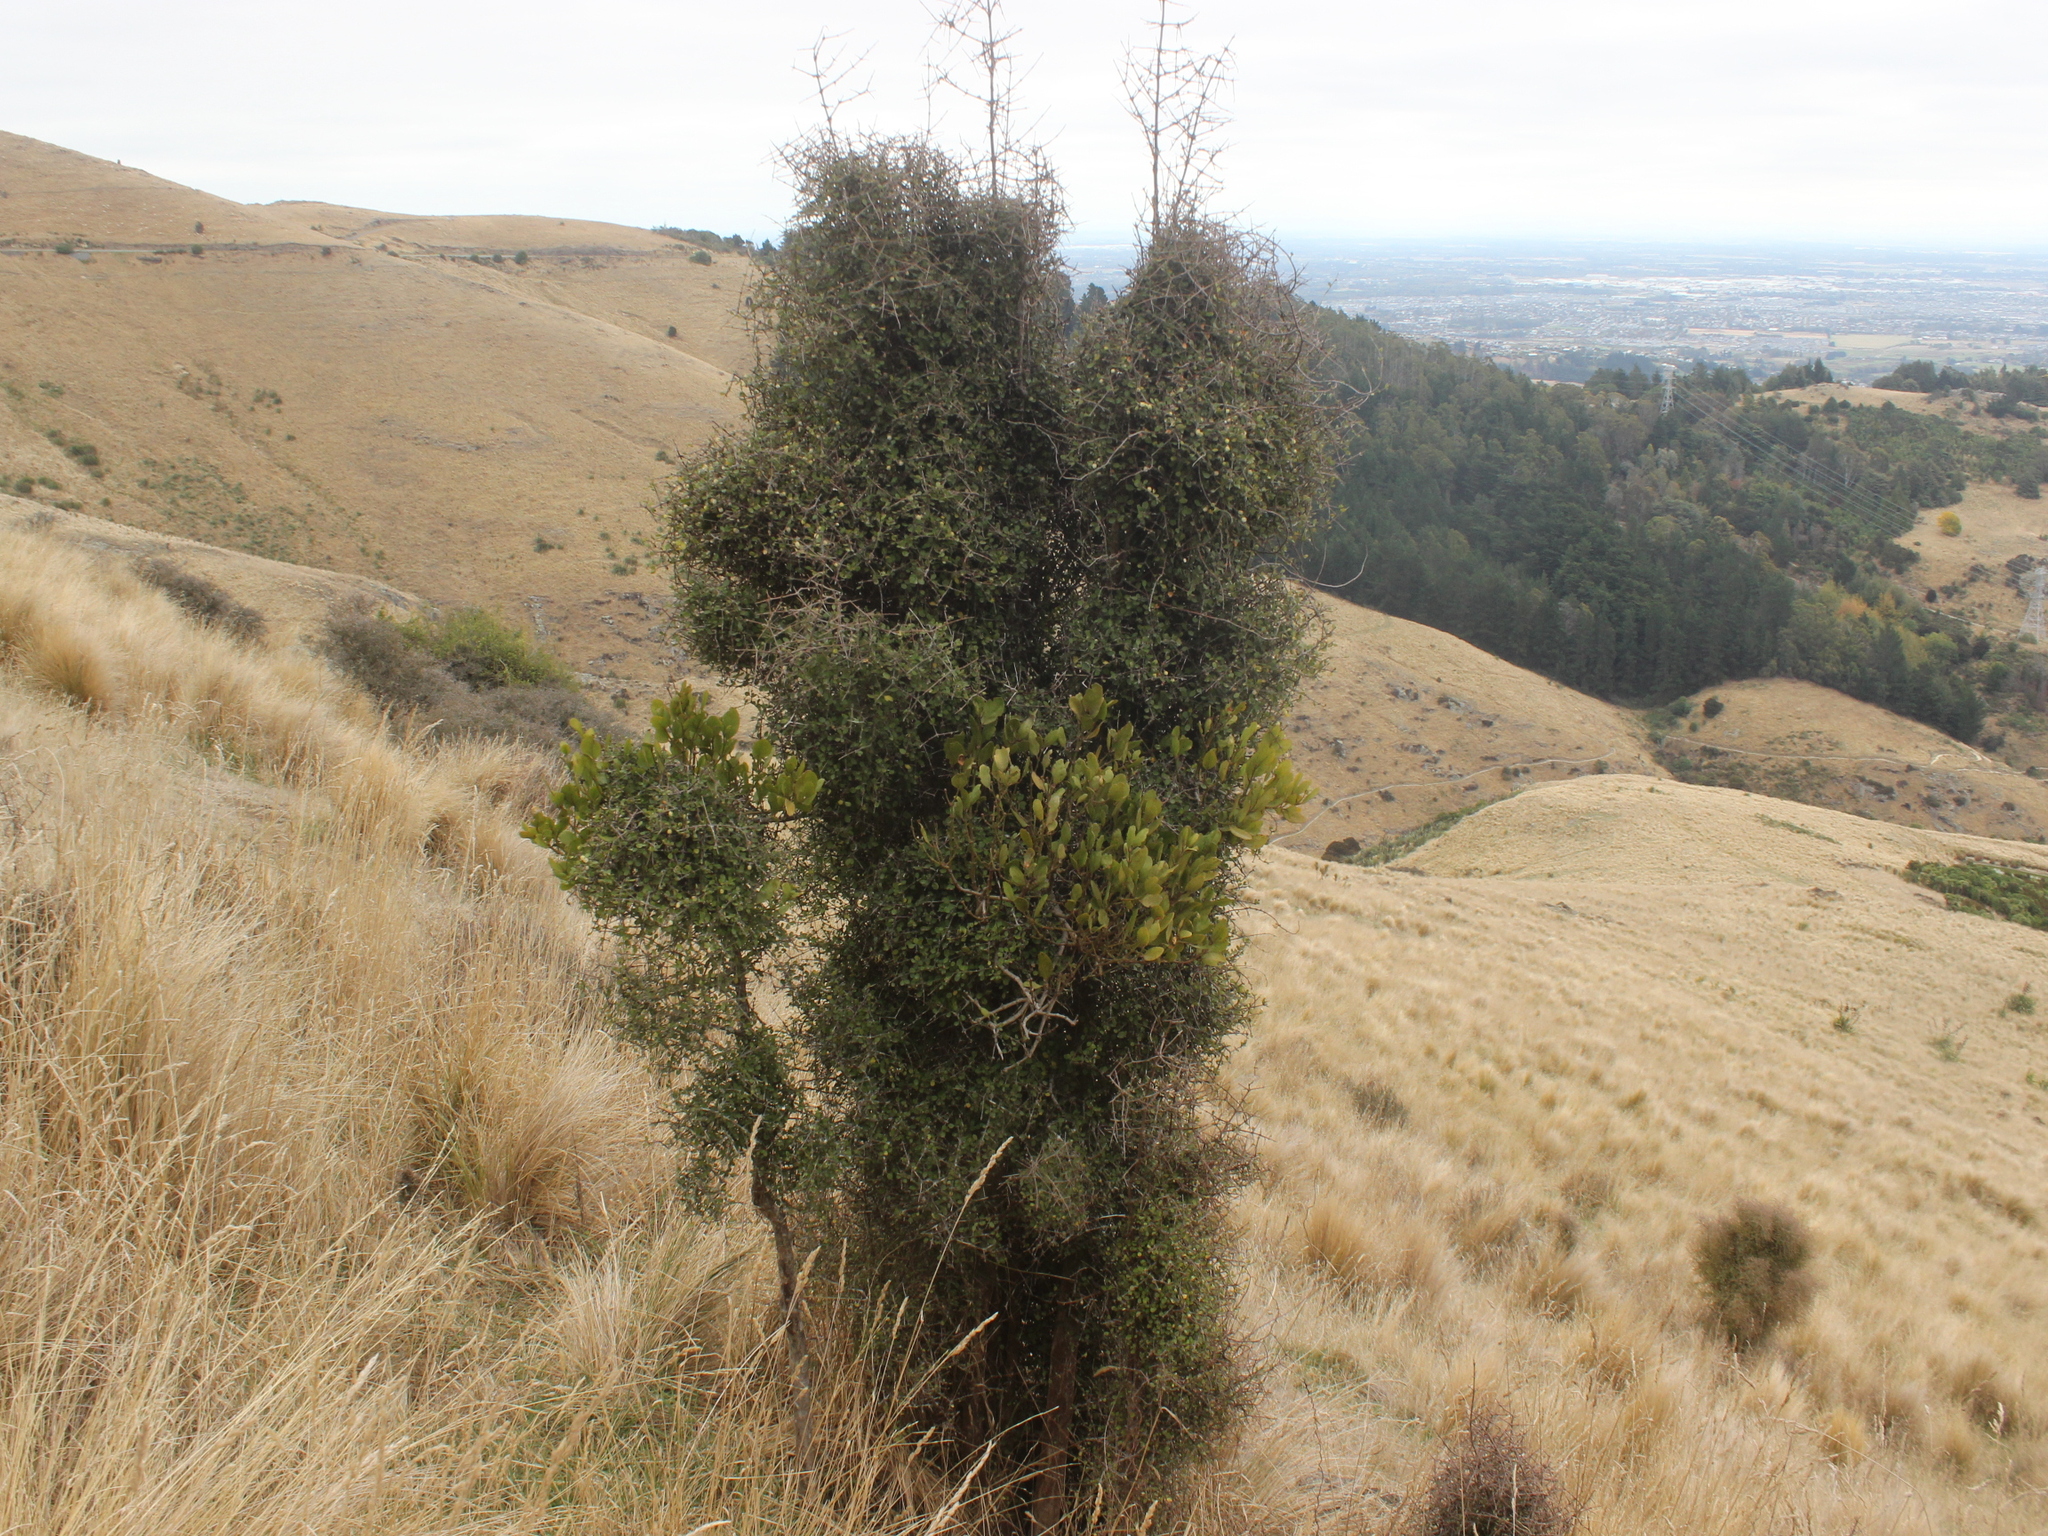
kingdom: Plantae
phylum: Tracheophyta
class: Magnoliopsida
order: Gentianales
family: Rubiaceae
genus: Coprosma
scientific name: Coprosma rigida
